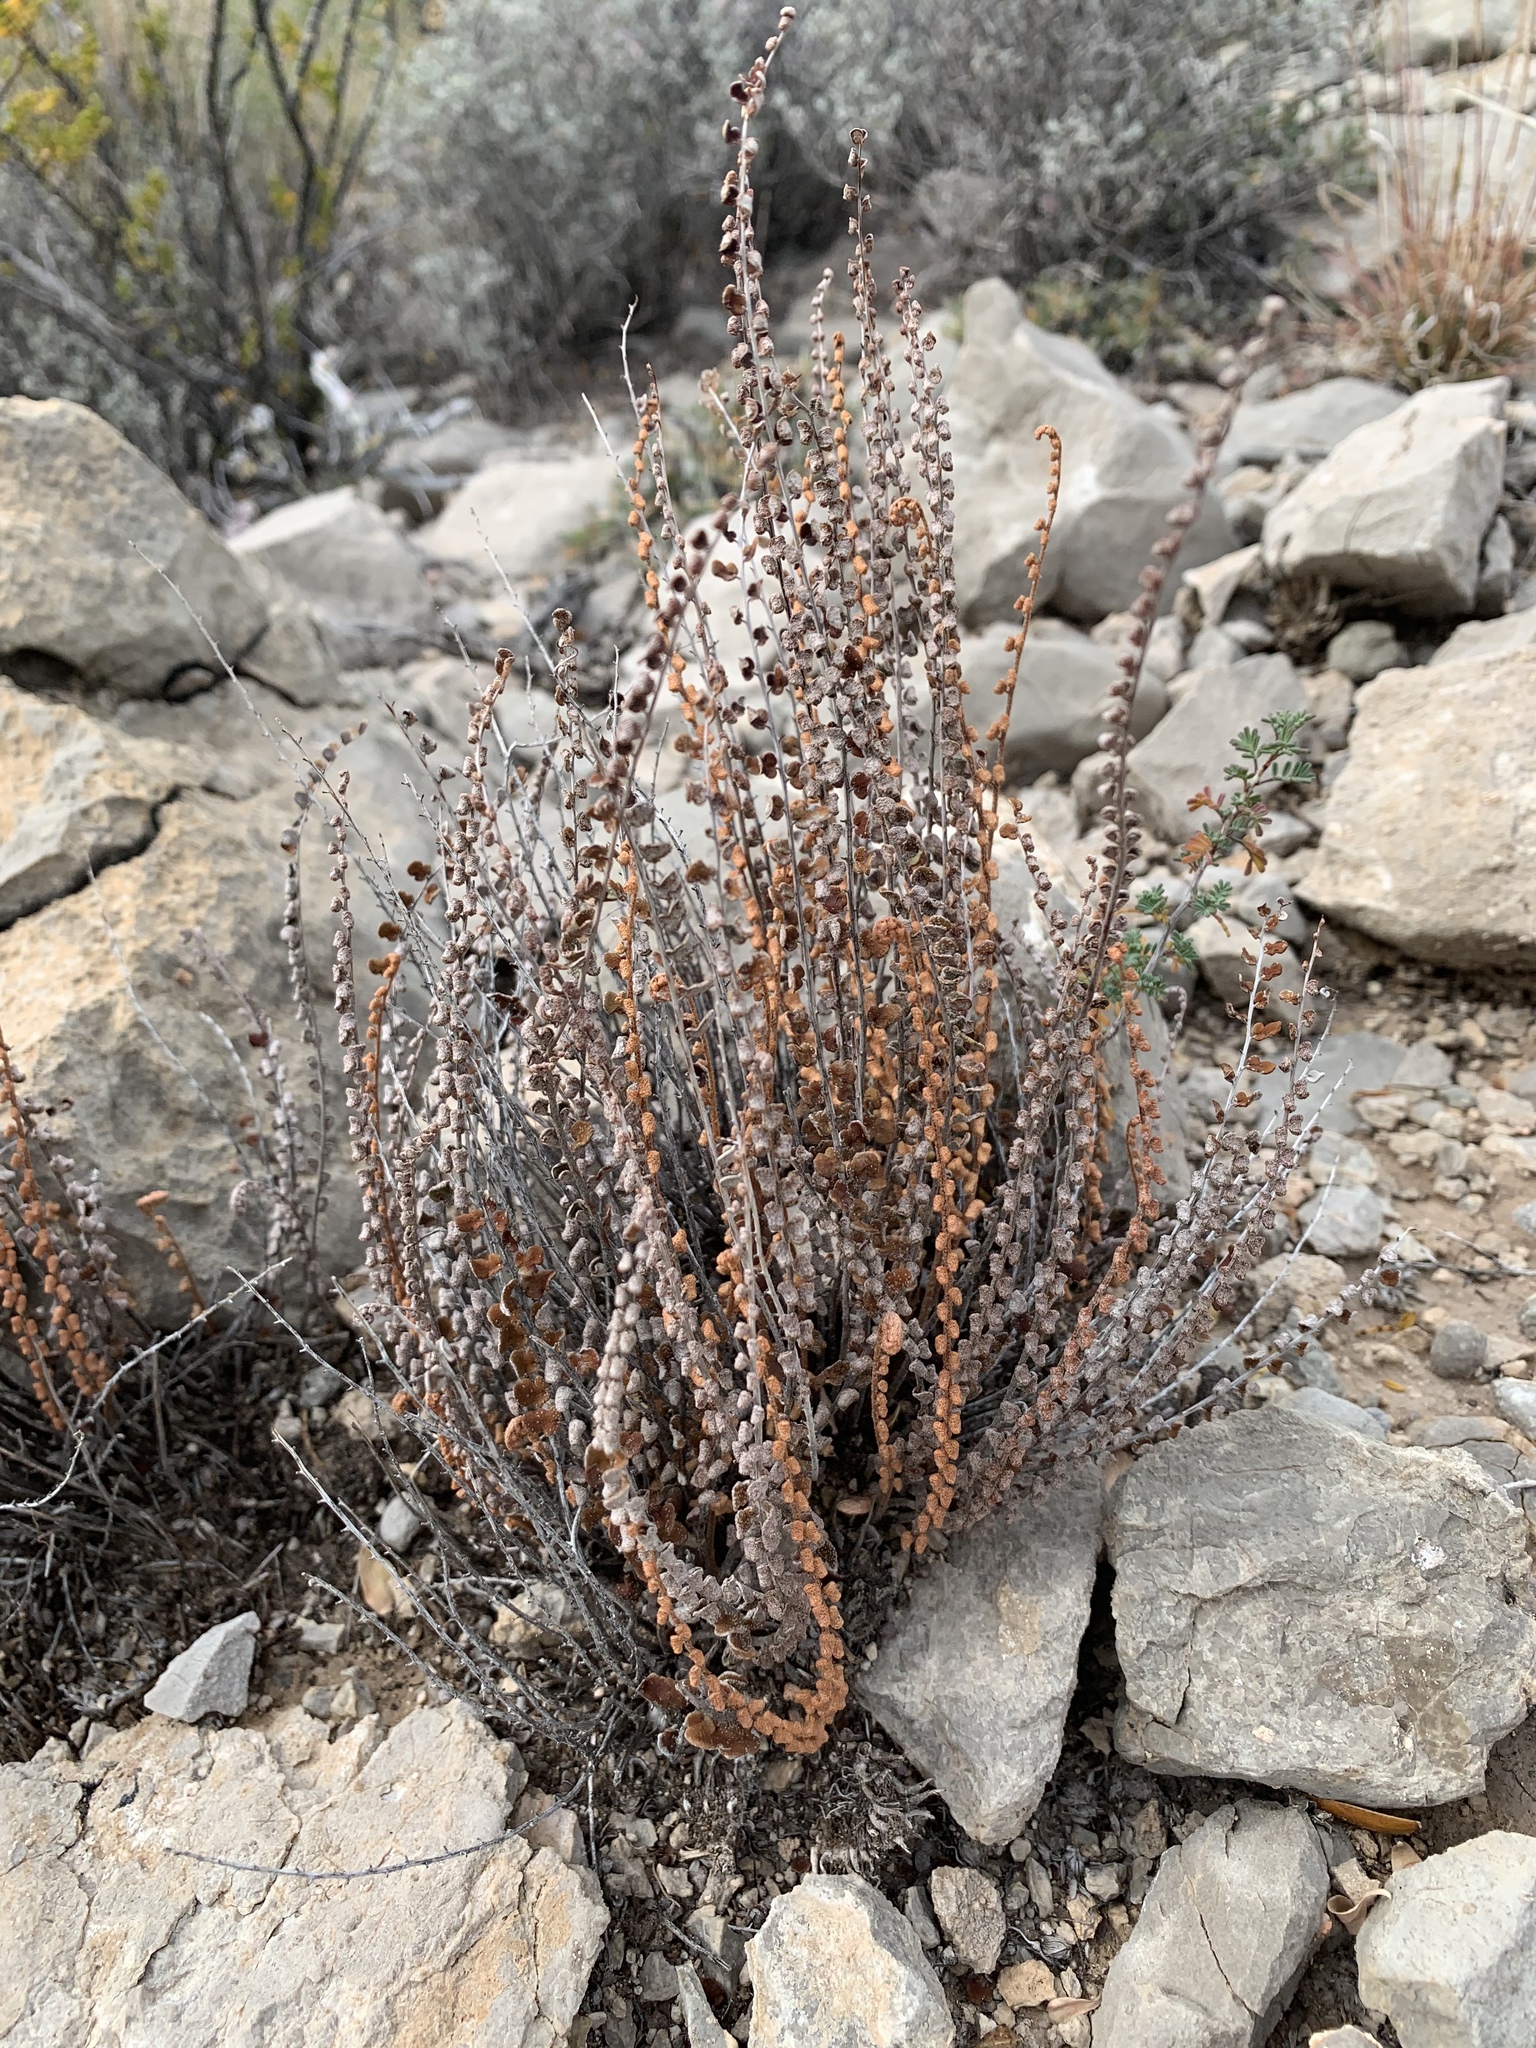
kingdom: Plantae
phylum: Tracheophyta
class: Polypodiopsida
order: Polypodiales
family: Pteridaceae
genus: Astrolepis
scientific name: Astrolepis cochisensis
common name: Scaly cloak fern
